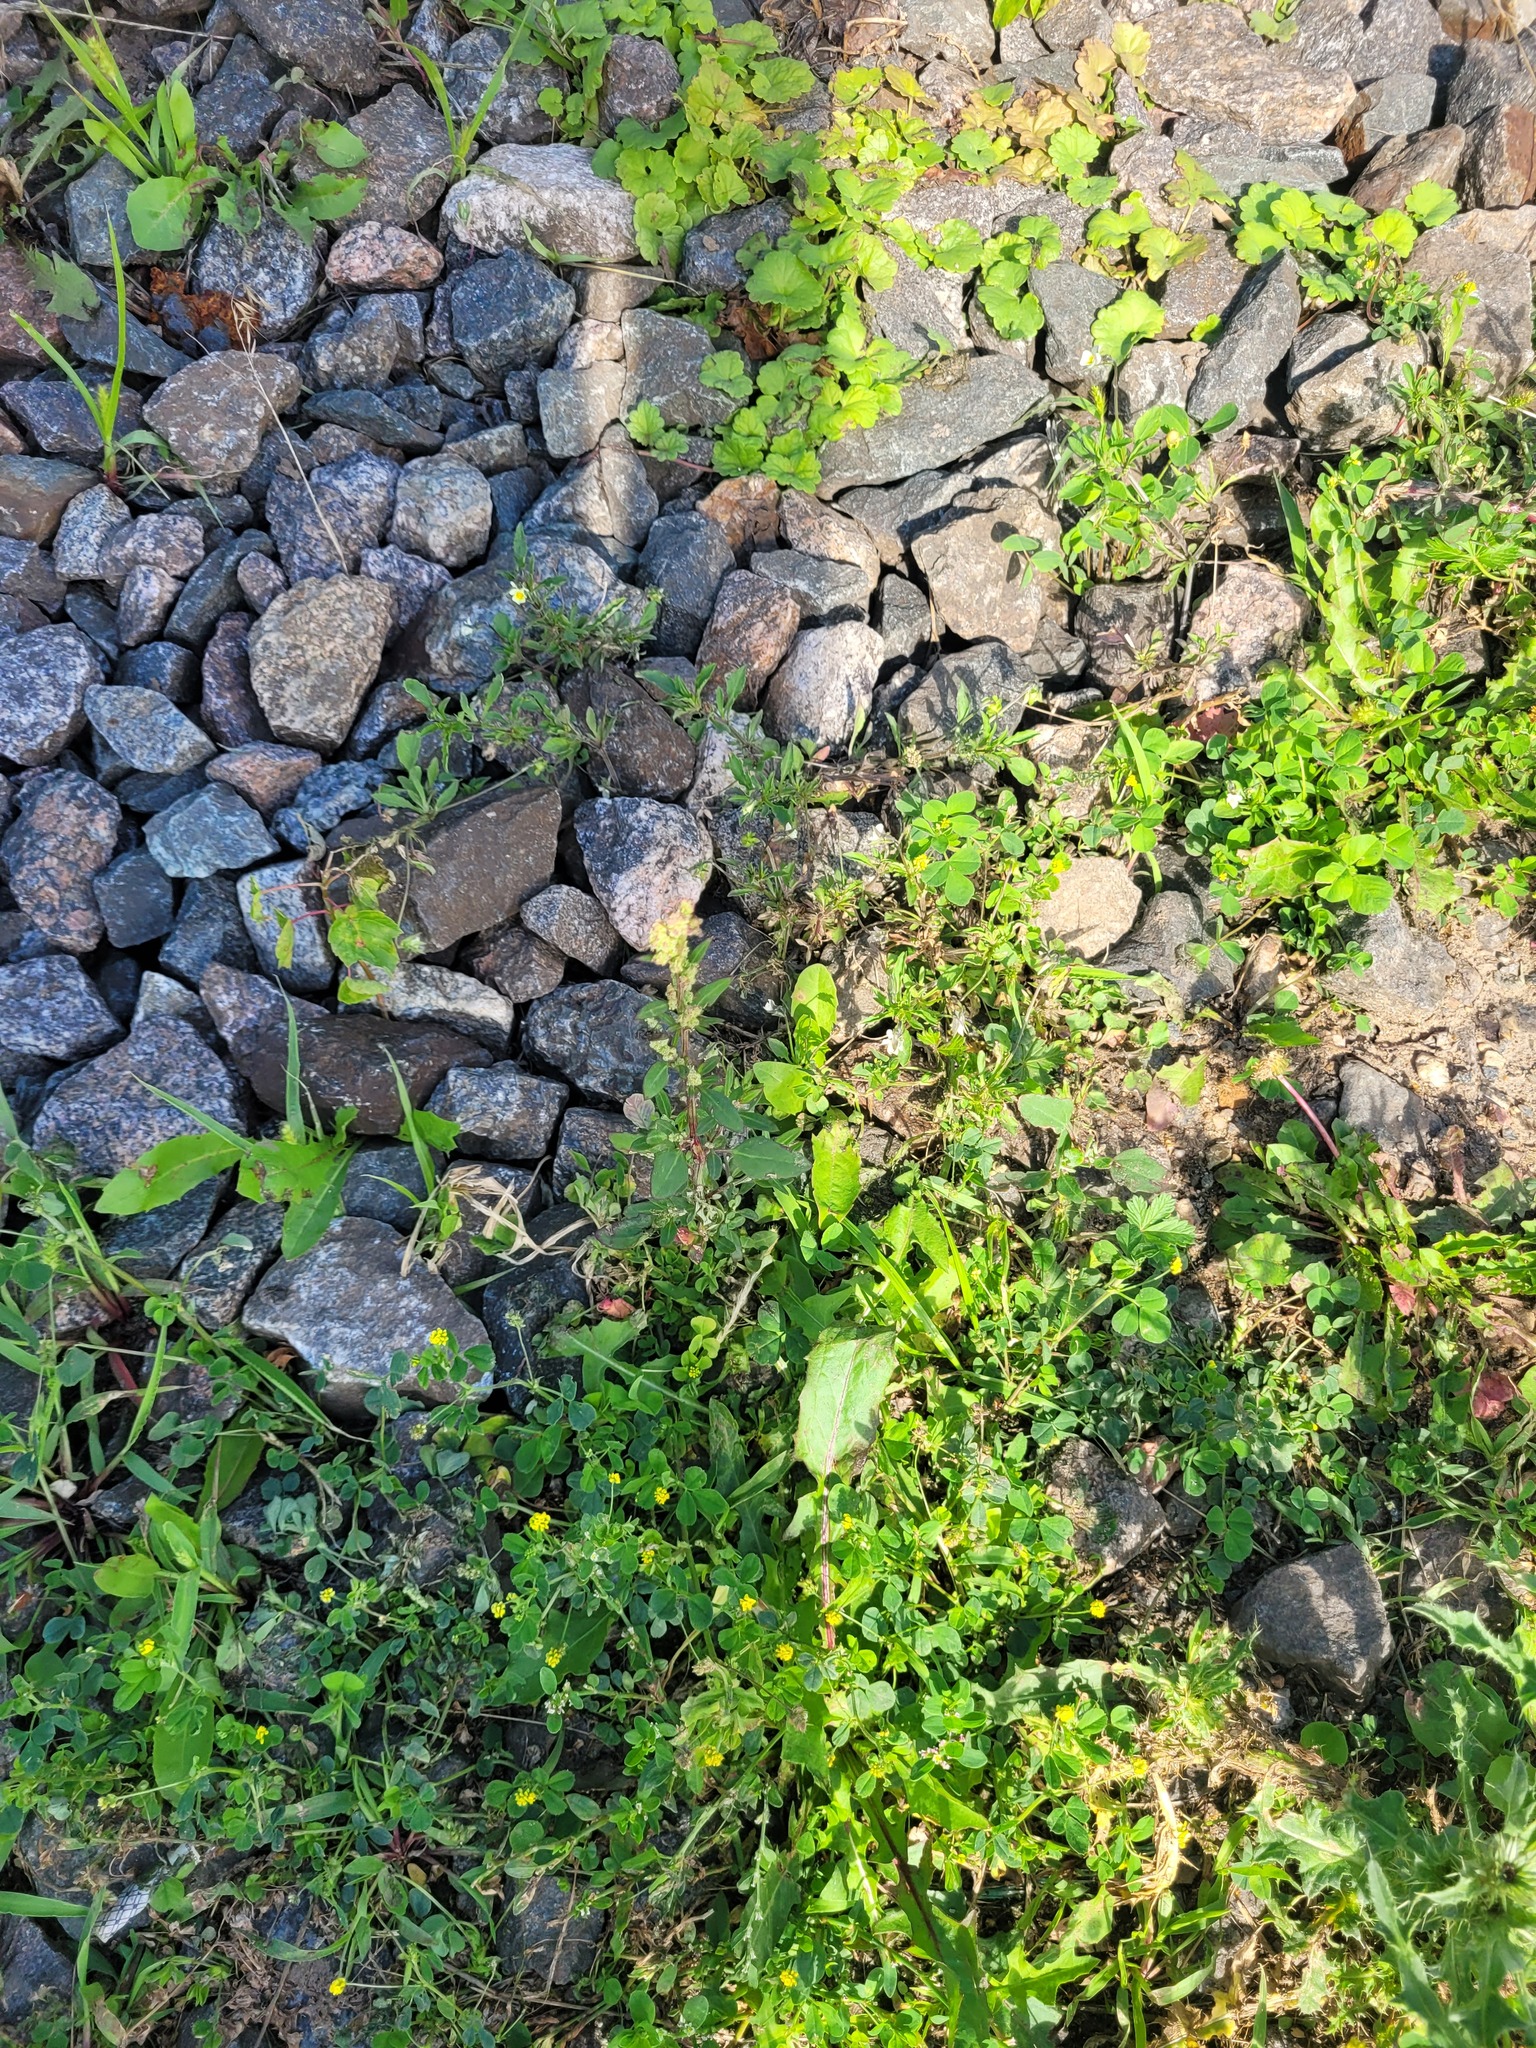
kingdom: Plantae
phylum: Tracheophyta
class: Magnoliopsida
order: Caryophyllales
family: Amaranthaceae
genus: Chenopodium
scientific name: Chenopodium betaceum
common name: Striped goosefoot
